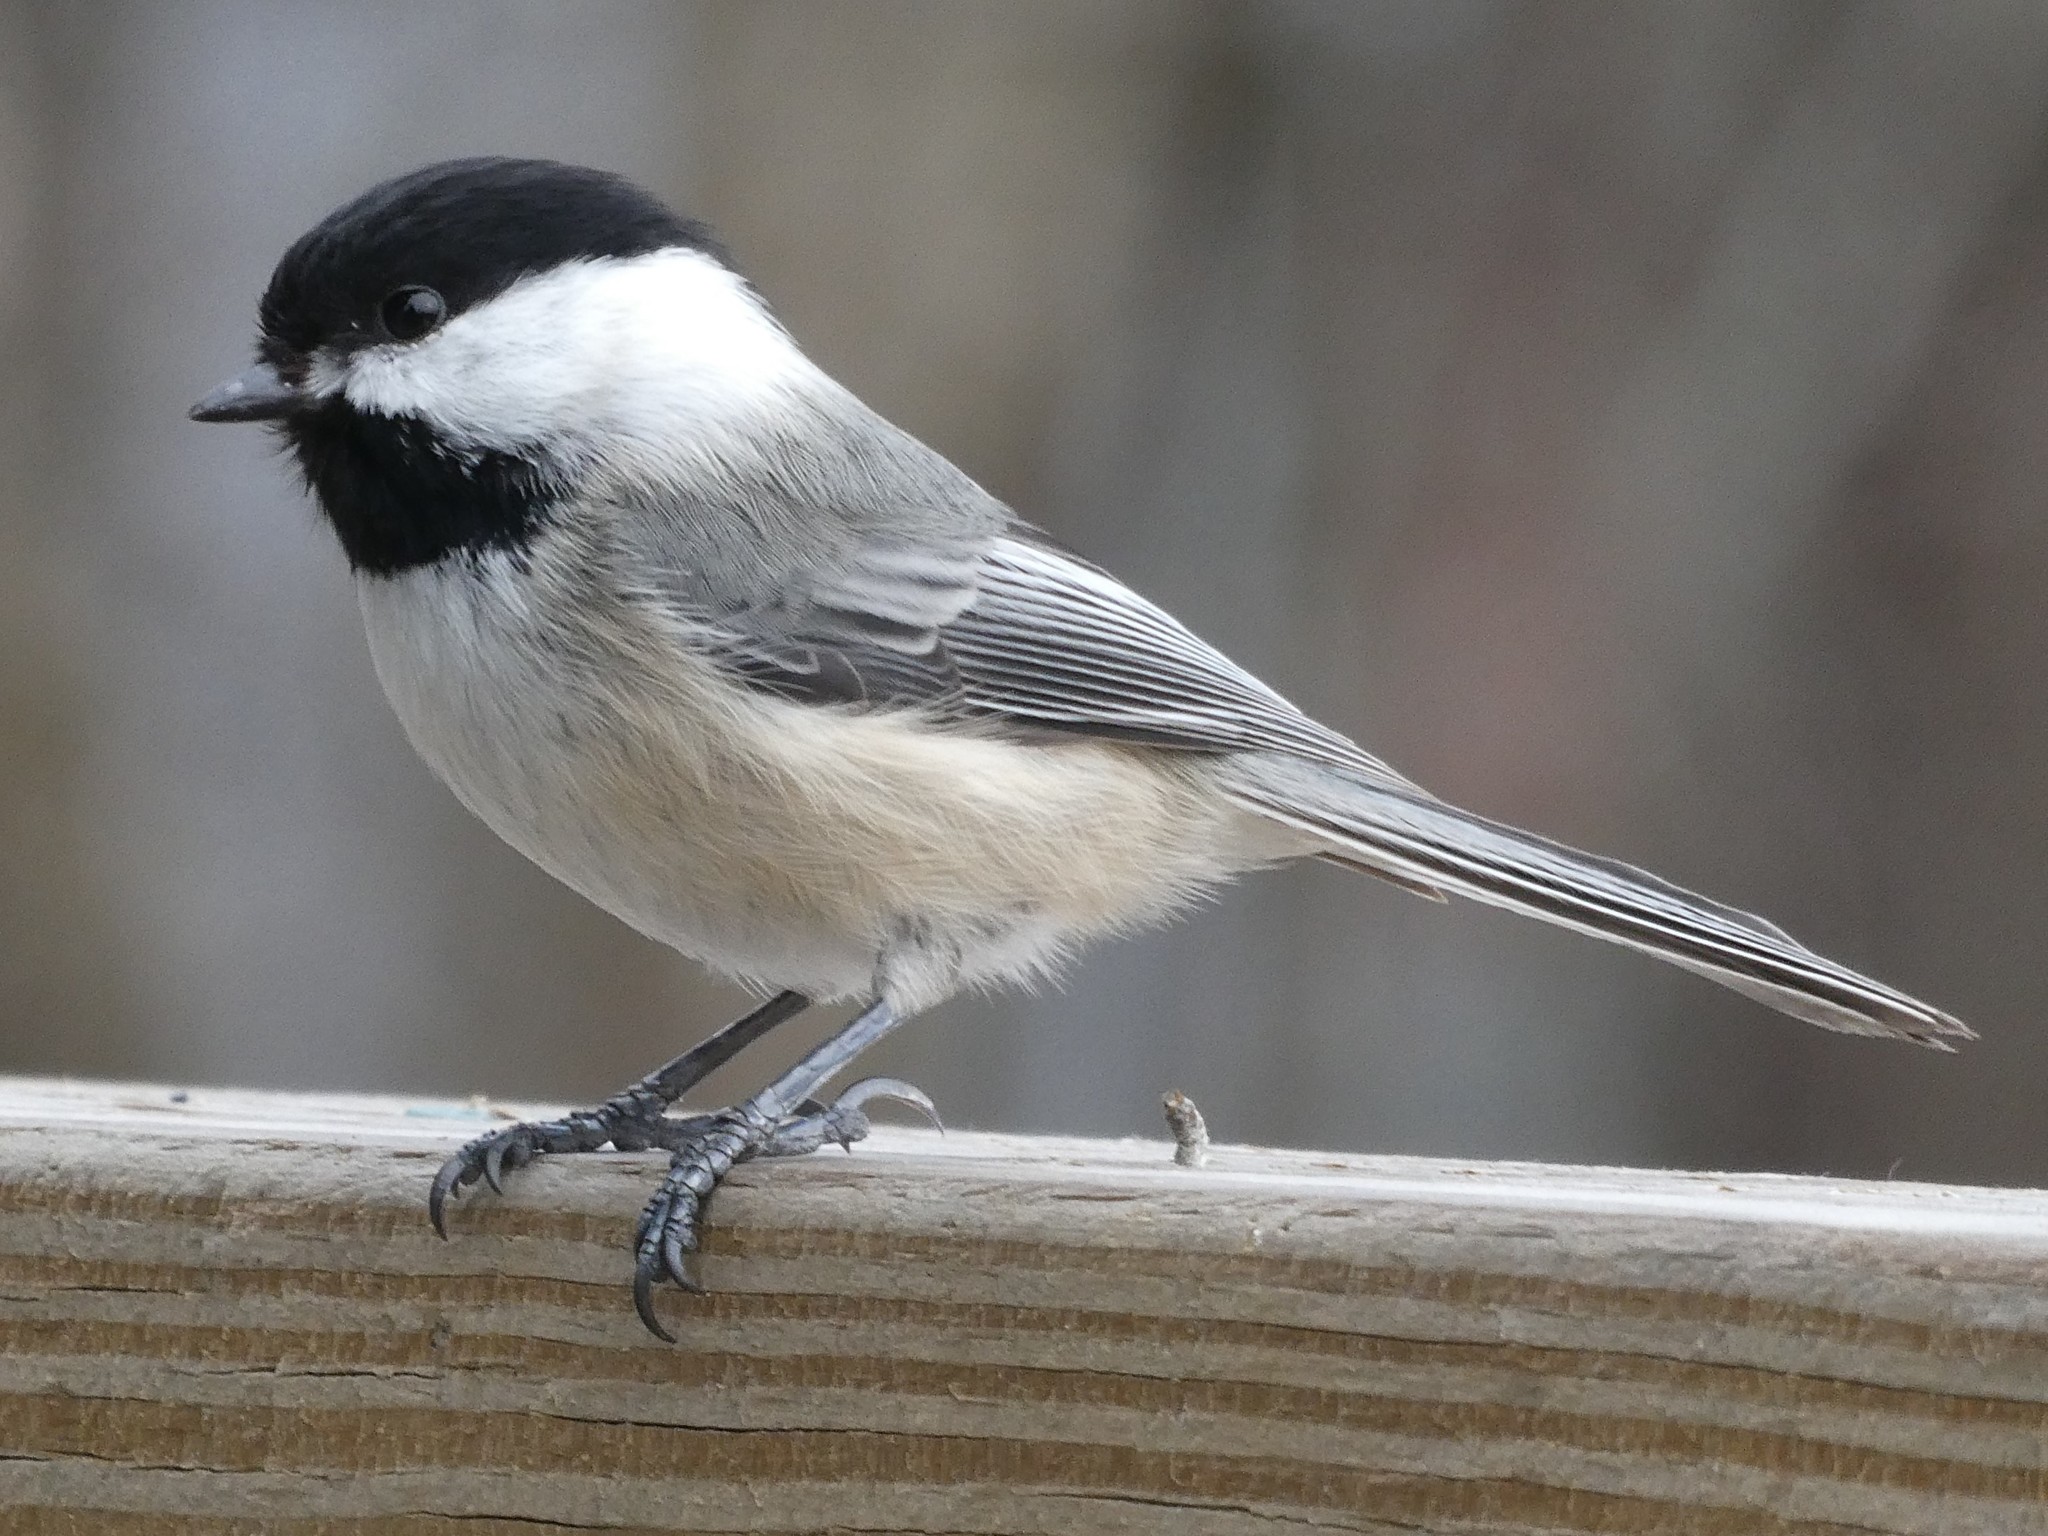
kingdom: Animalia
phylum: Chordata
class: Aves
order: Passeriformes
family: Paridae
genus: Poecile
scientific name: Poecile atricapillus
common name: Black-capped chickadee
